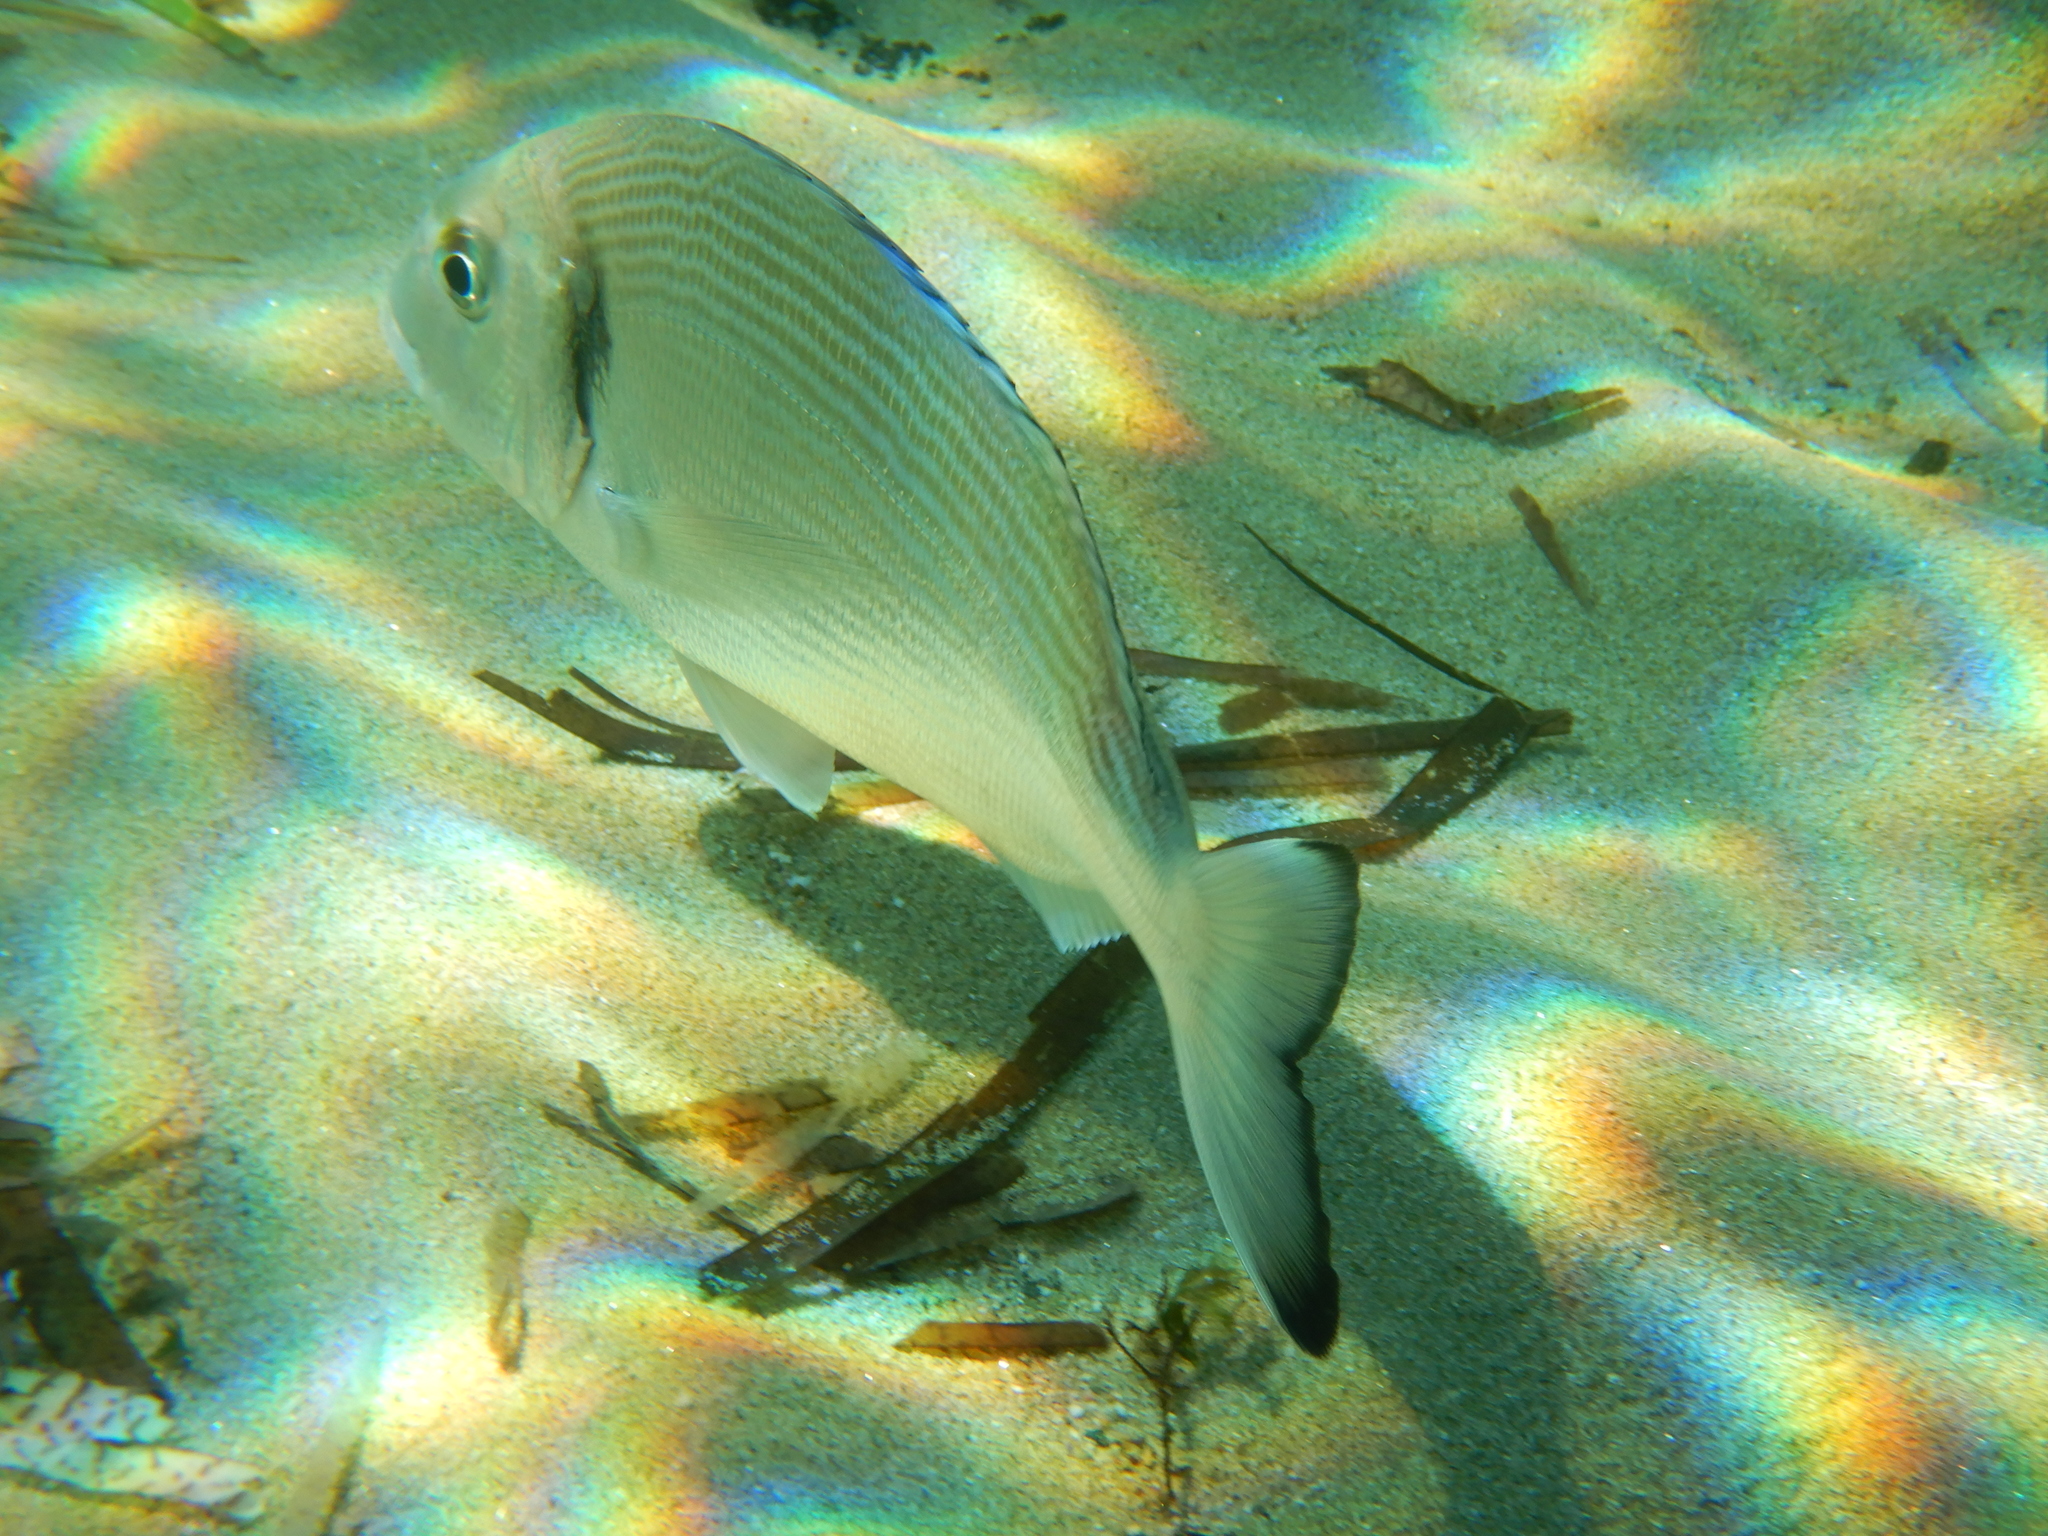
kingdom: Animalia
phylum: Chordata
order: Perciformes
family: Sparidae
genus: Sparus
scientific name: Sparus aurata
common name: Gilthead
